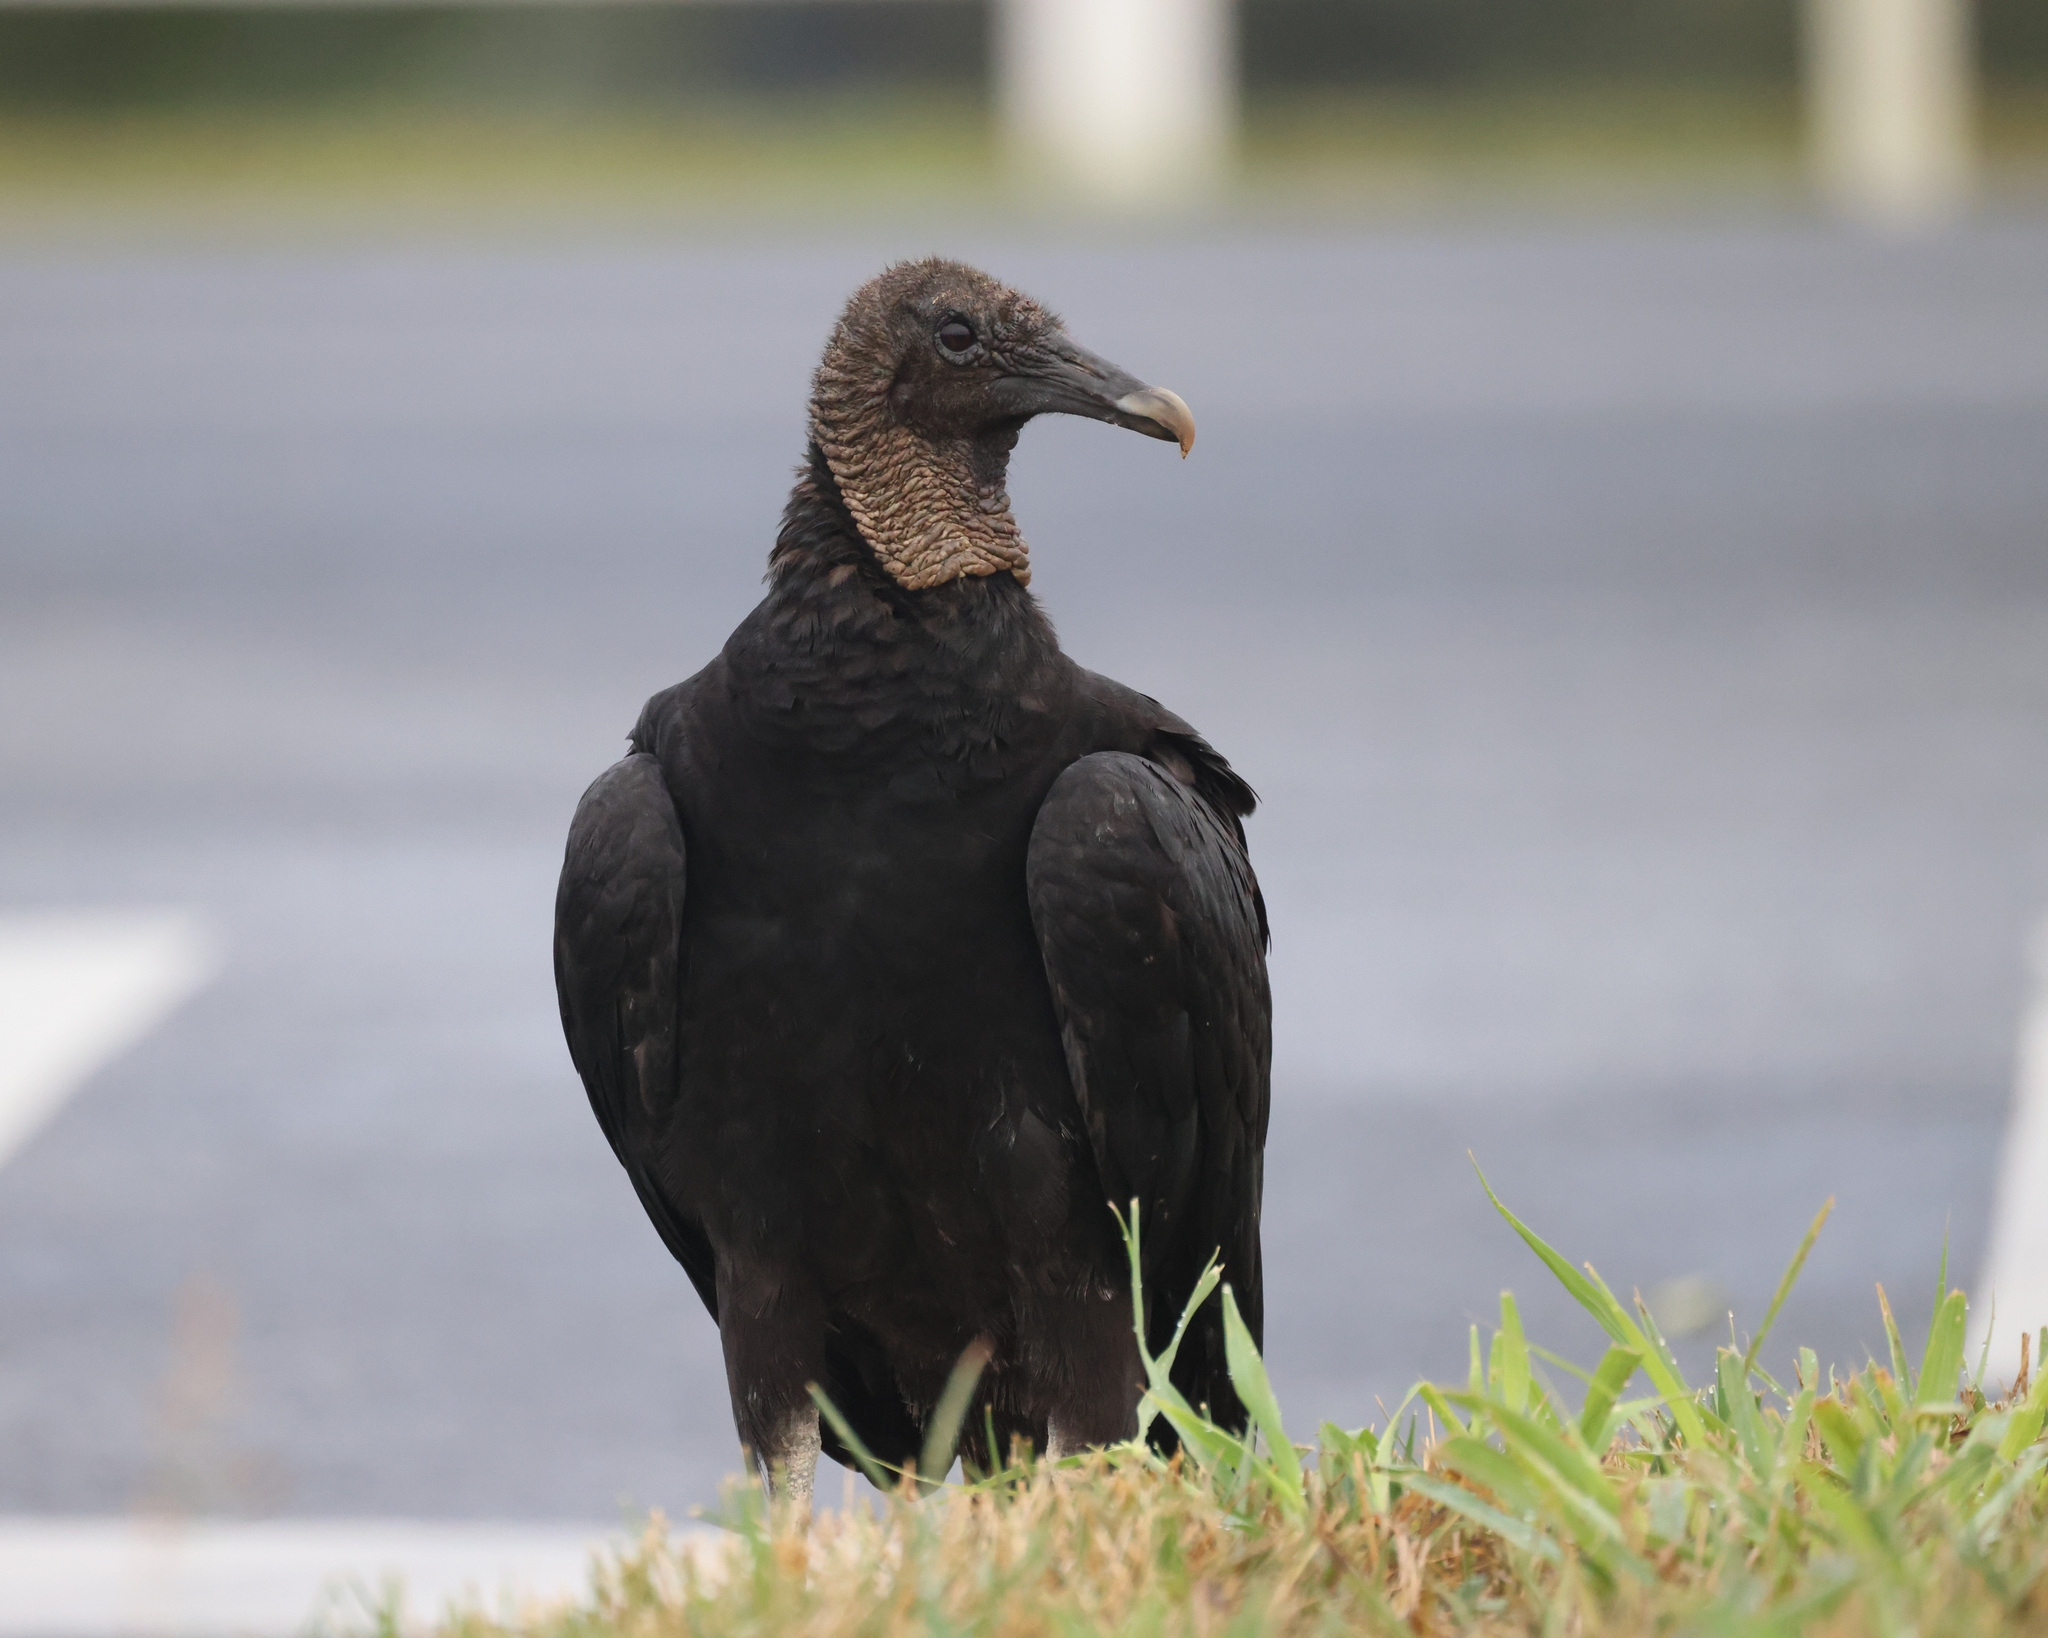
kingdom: Animalia
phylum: Chordata
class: Aves
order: Accipitriformes
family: Cathartidae
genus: Coragyps
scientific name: Coragyps atratus
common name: Black vulture
